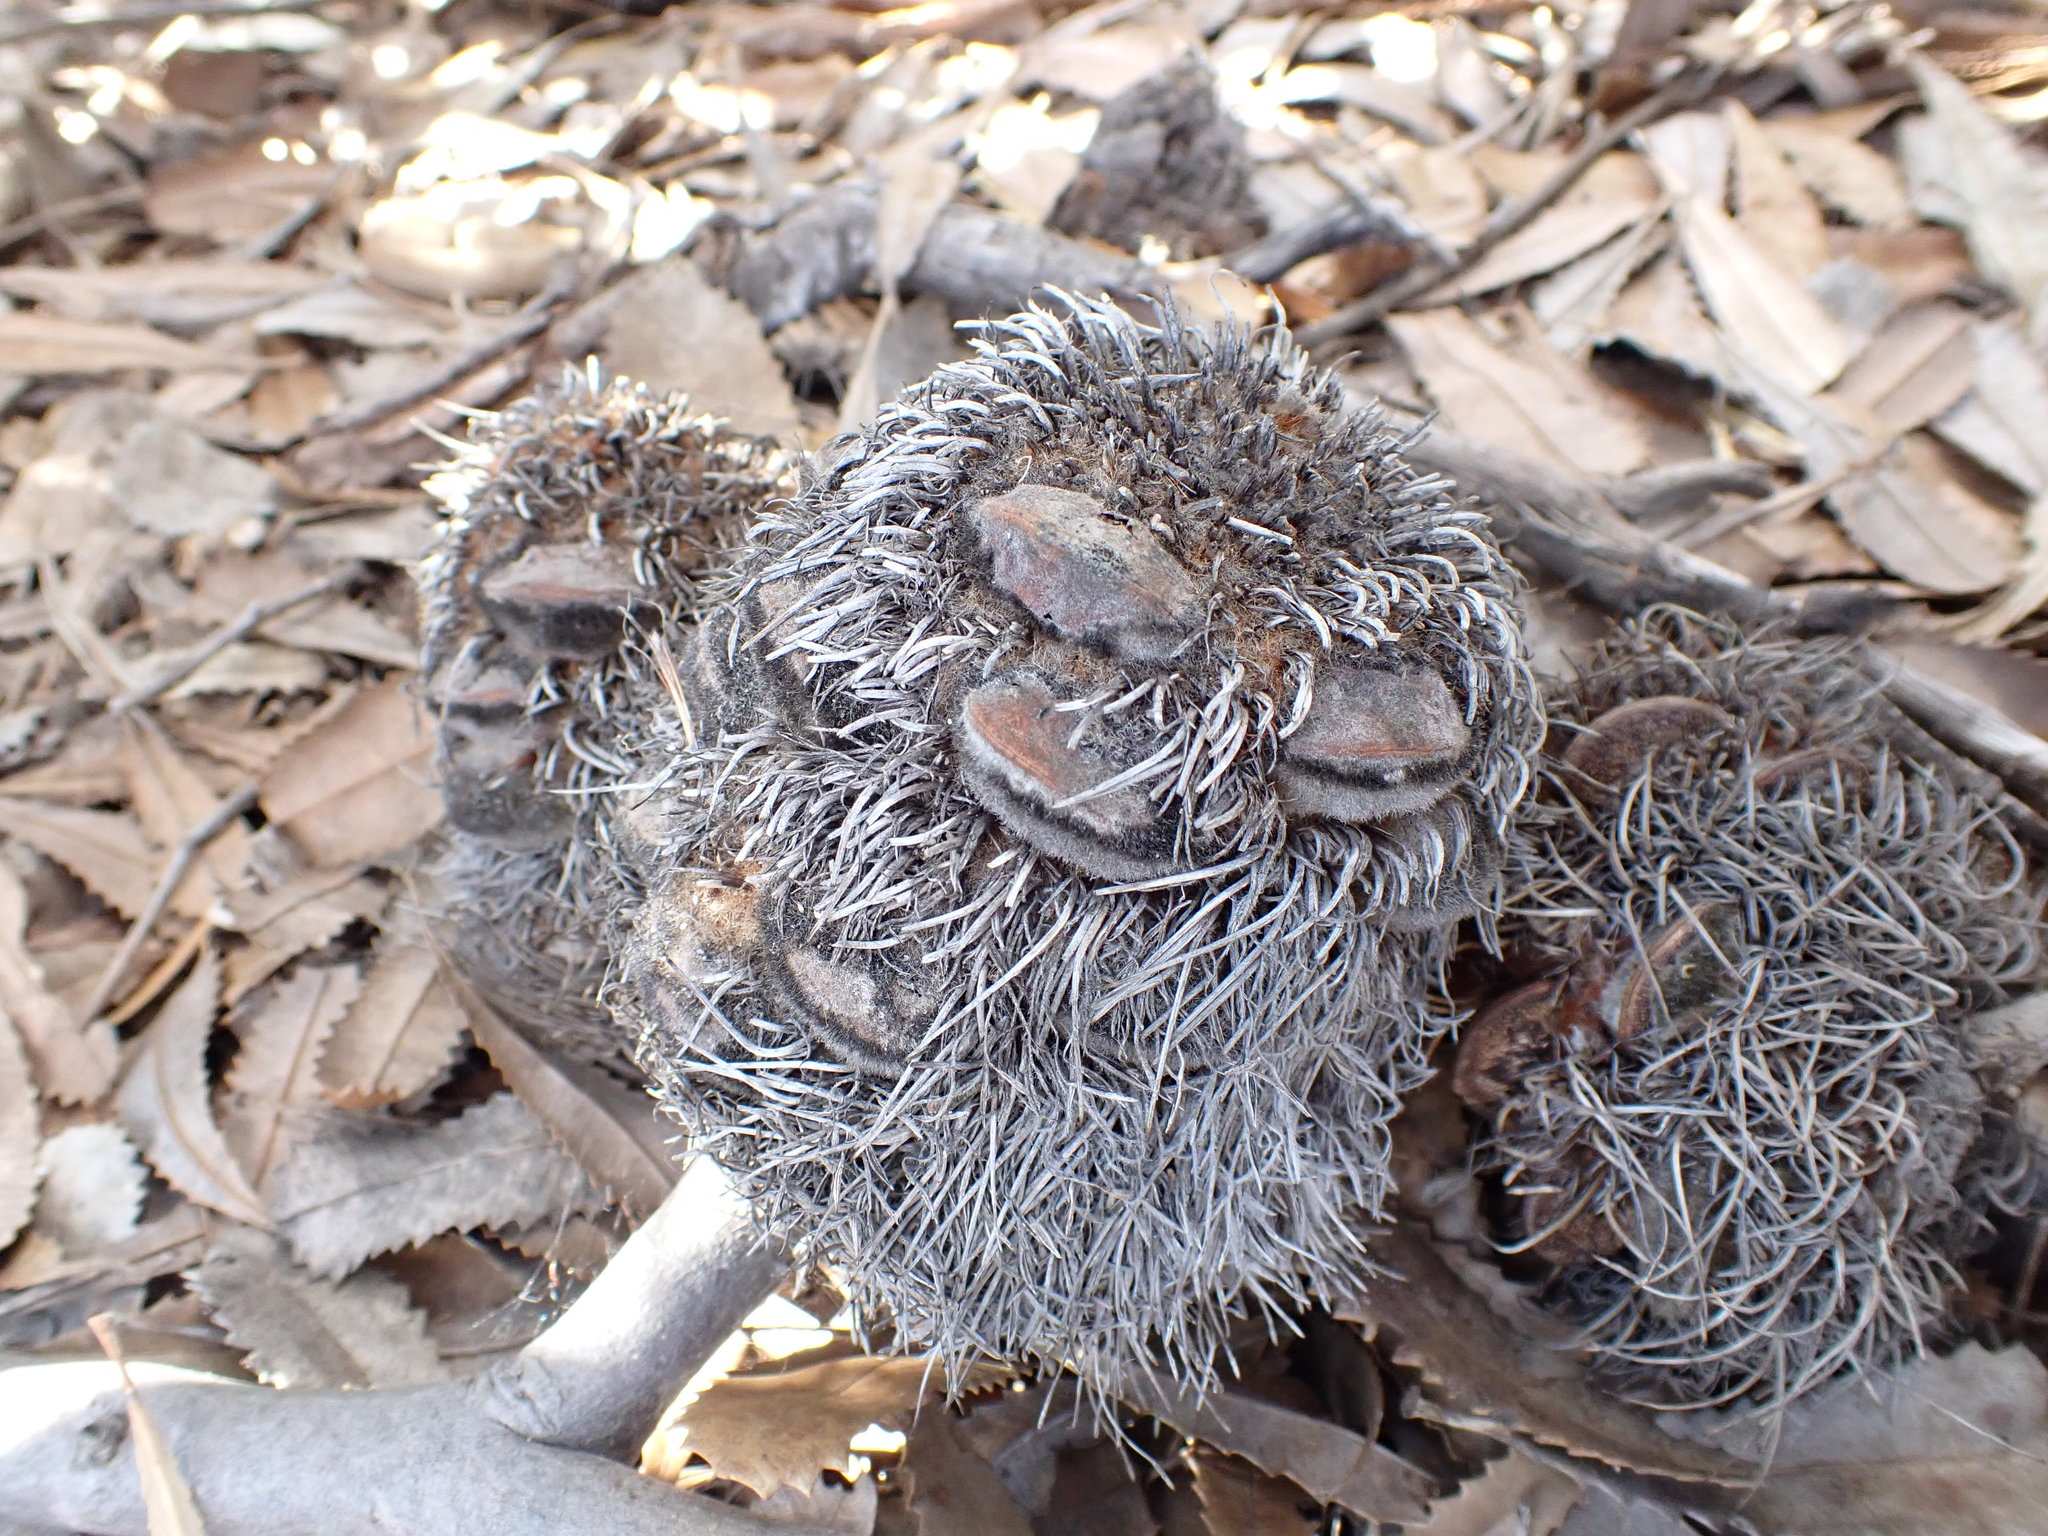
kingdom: Plantae
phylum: Tracheophyta
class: Magnoliopsida
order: Proteales
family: Proteaceae
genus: Banksia
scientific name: Banksia ornata
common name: Desert banksia
